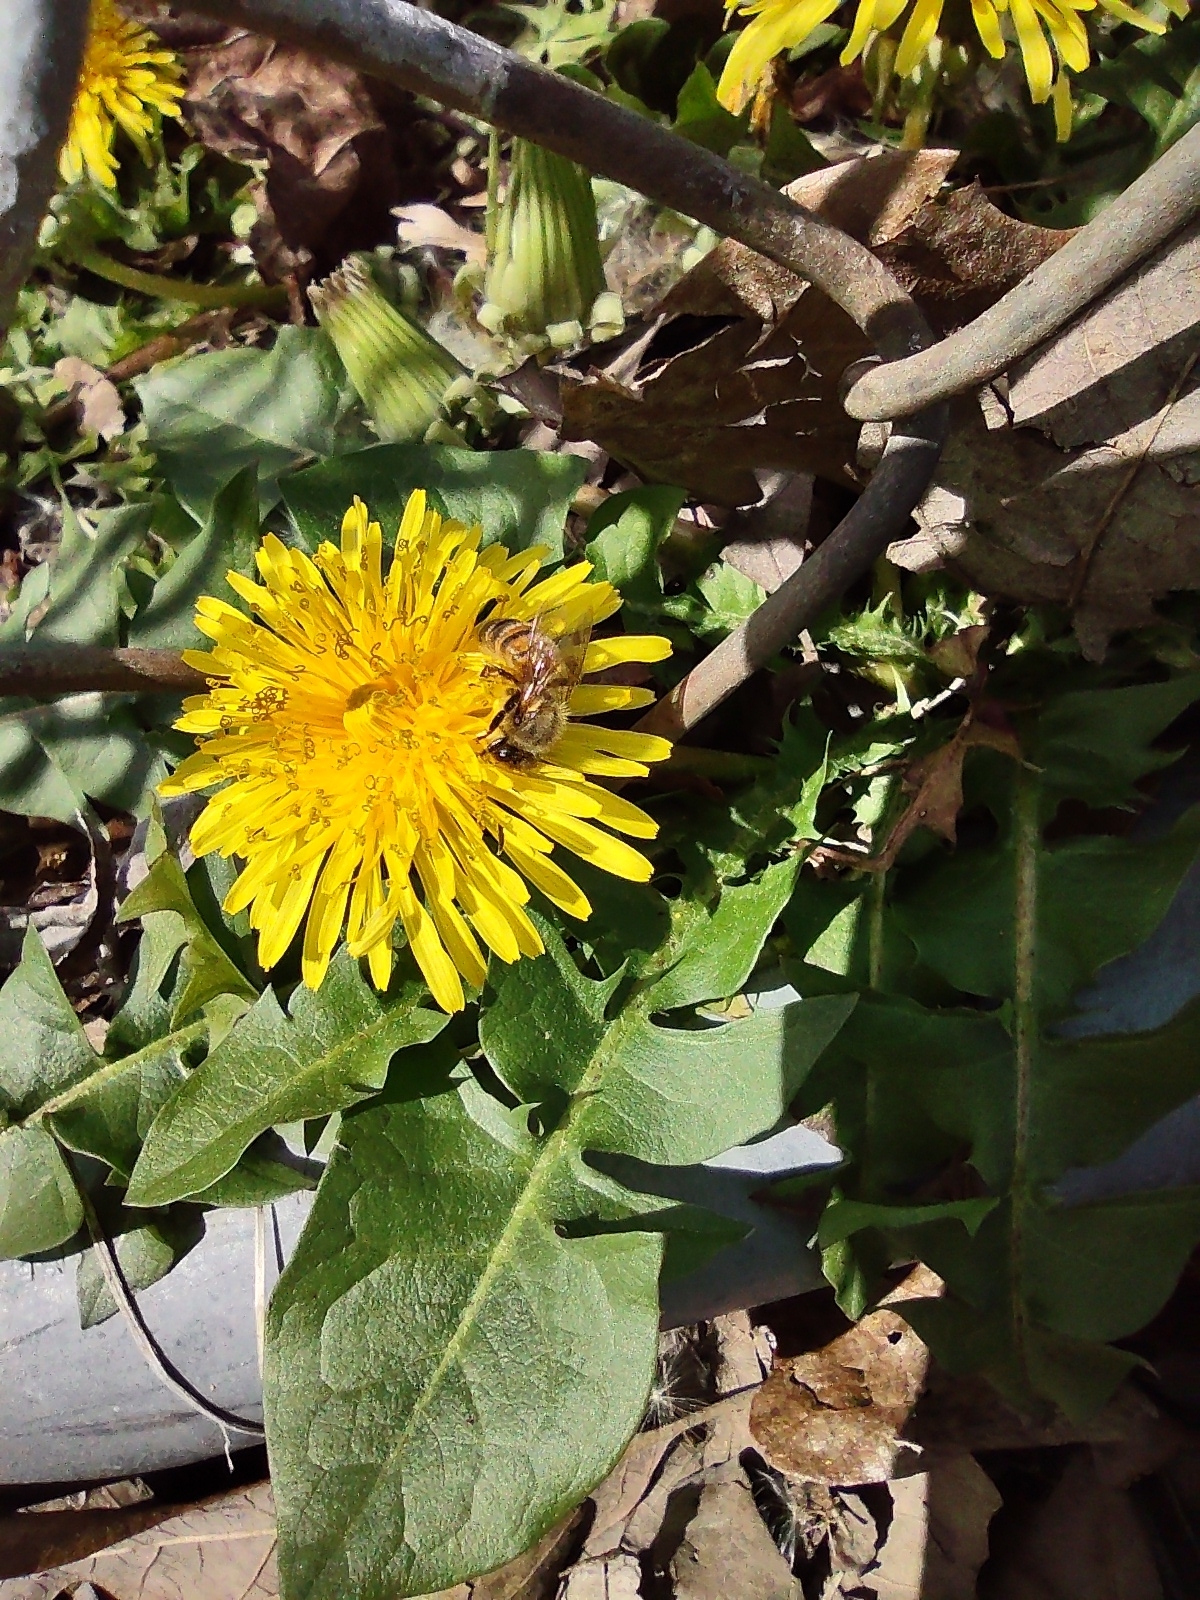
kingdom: Animalia
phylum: Arthropoda
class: Insecta
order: Hymenoptera
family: Apidae
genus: Apis
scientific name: Apis mellifera
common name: Honey bee
